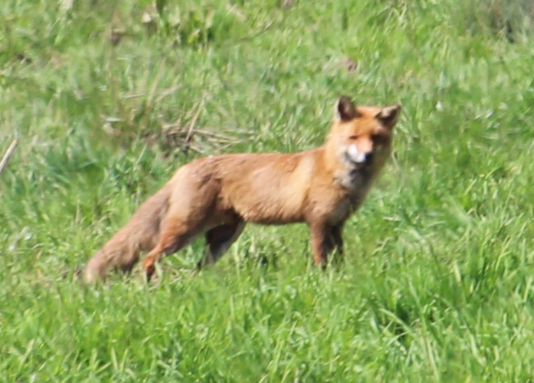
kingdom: Animalia
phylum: Chordata
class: Mammalia
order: Carnivora
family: Canidae
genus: Vulpes
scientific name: Vulpes vulpes
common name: Red fox
